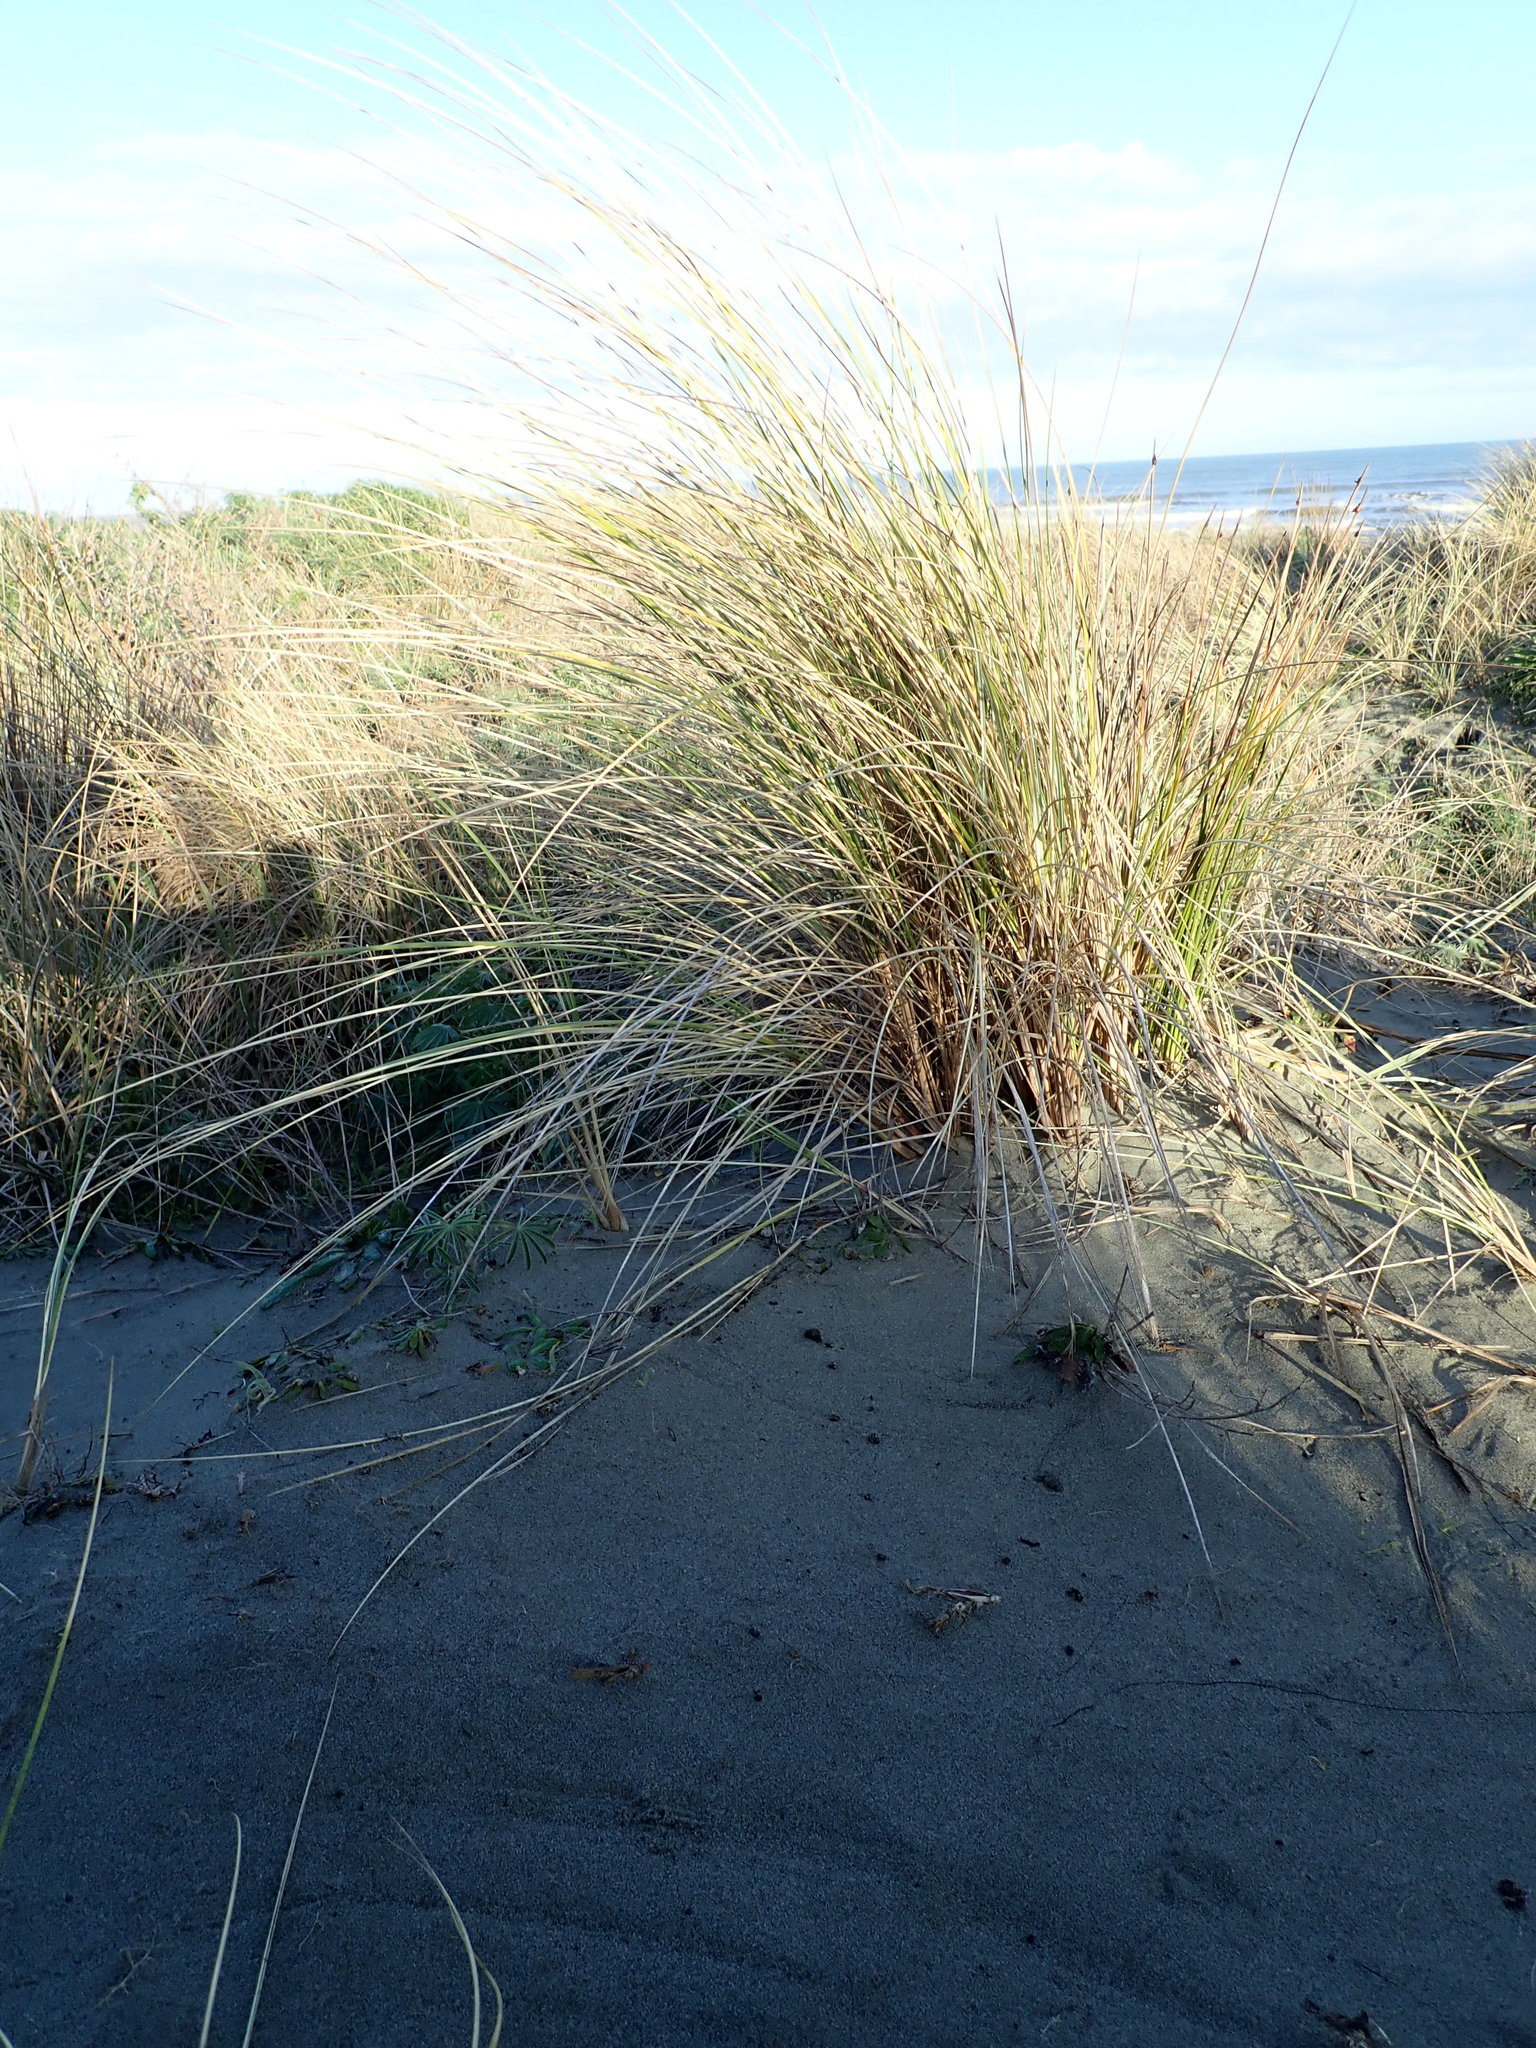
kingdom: Plantae
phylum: Tracheophyta
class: Liliopsida
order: Poales
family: Poaceae
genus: Calamagrostis
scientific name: Calamagrostis arenaria
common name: European beachgrass
